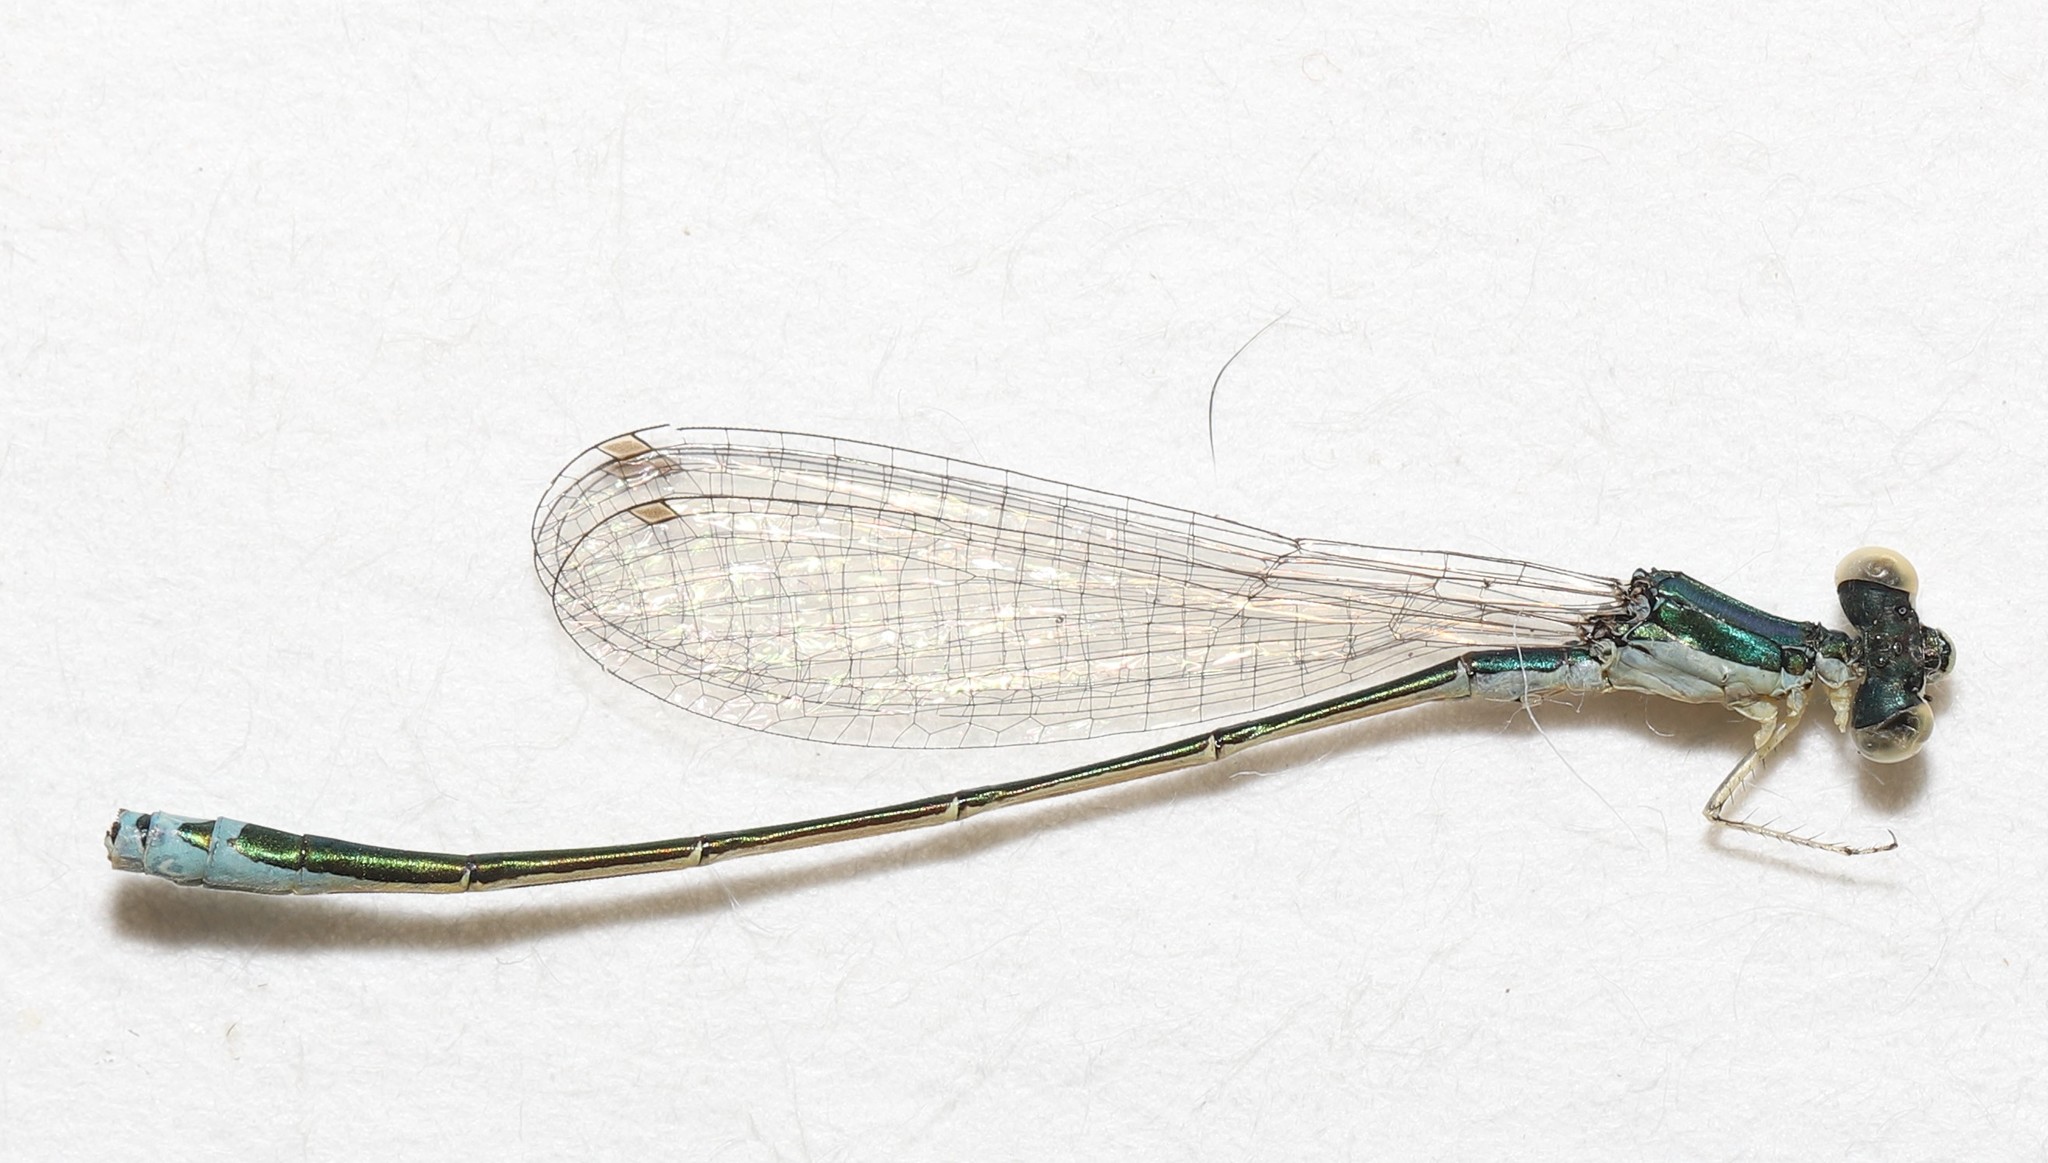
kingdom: Animalia
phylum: Arthropoda
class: Insecta
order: Odonata
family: Coenagrionidae
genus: Nehalennia
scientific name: Nehalennia irene
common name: Sedge sprite
